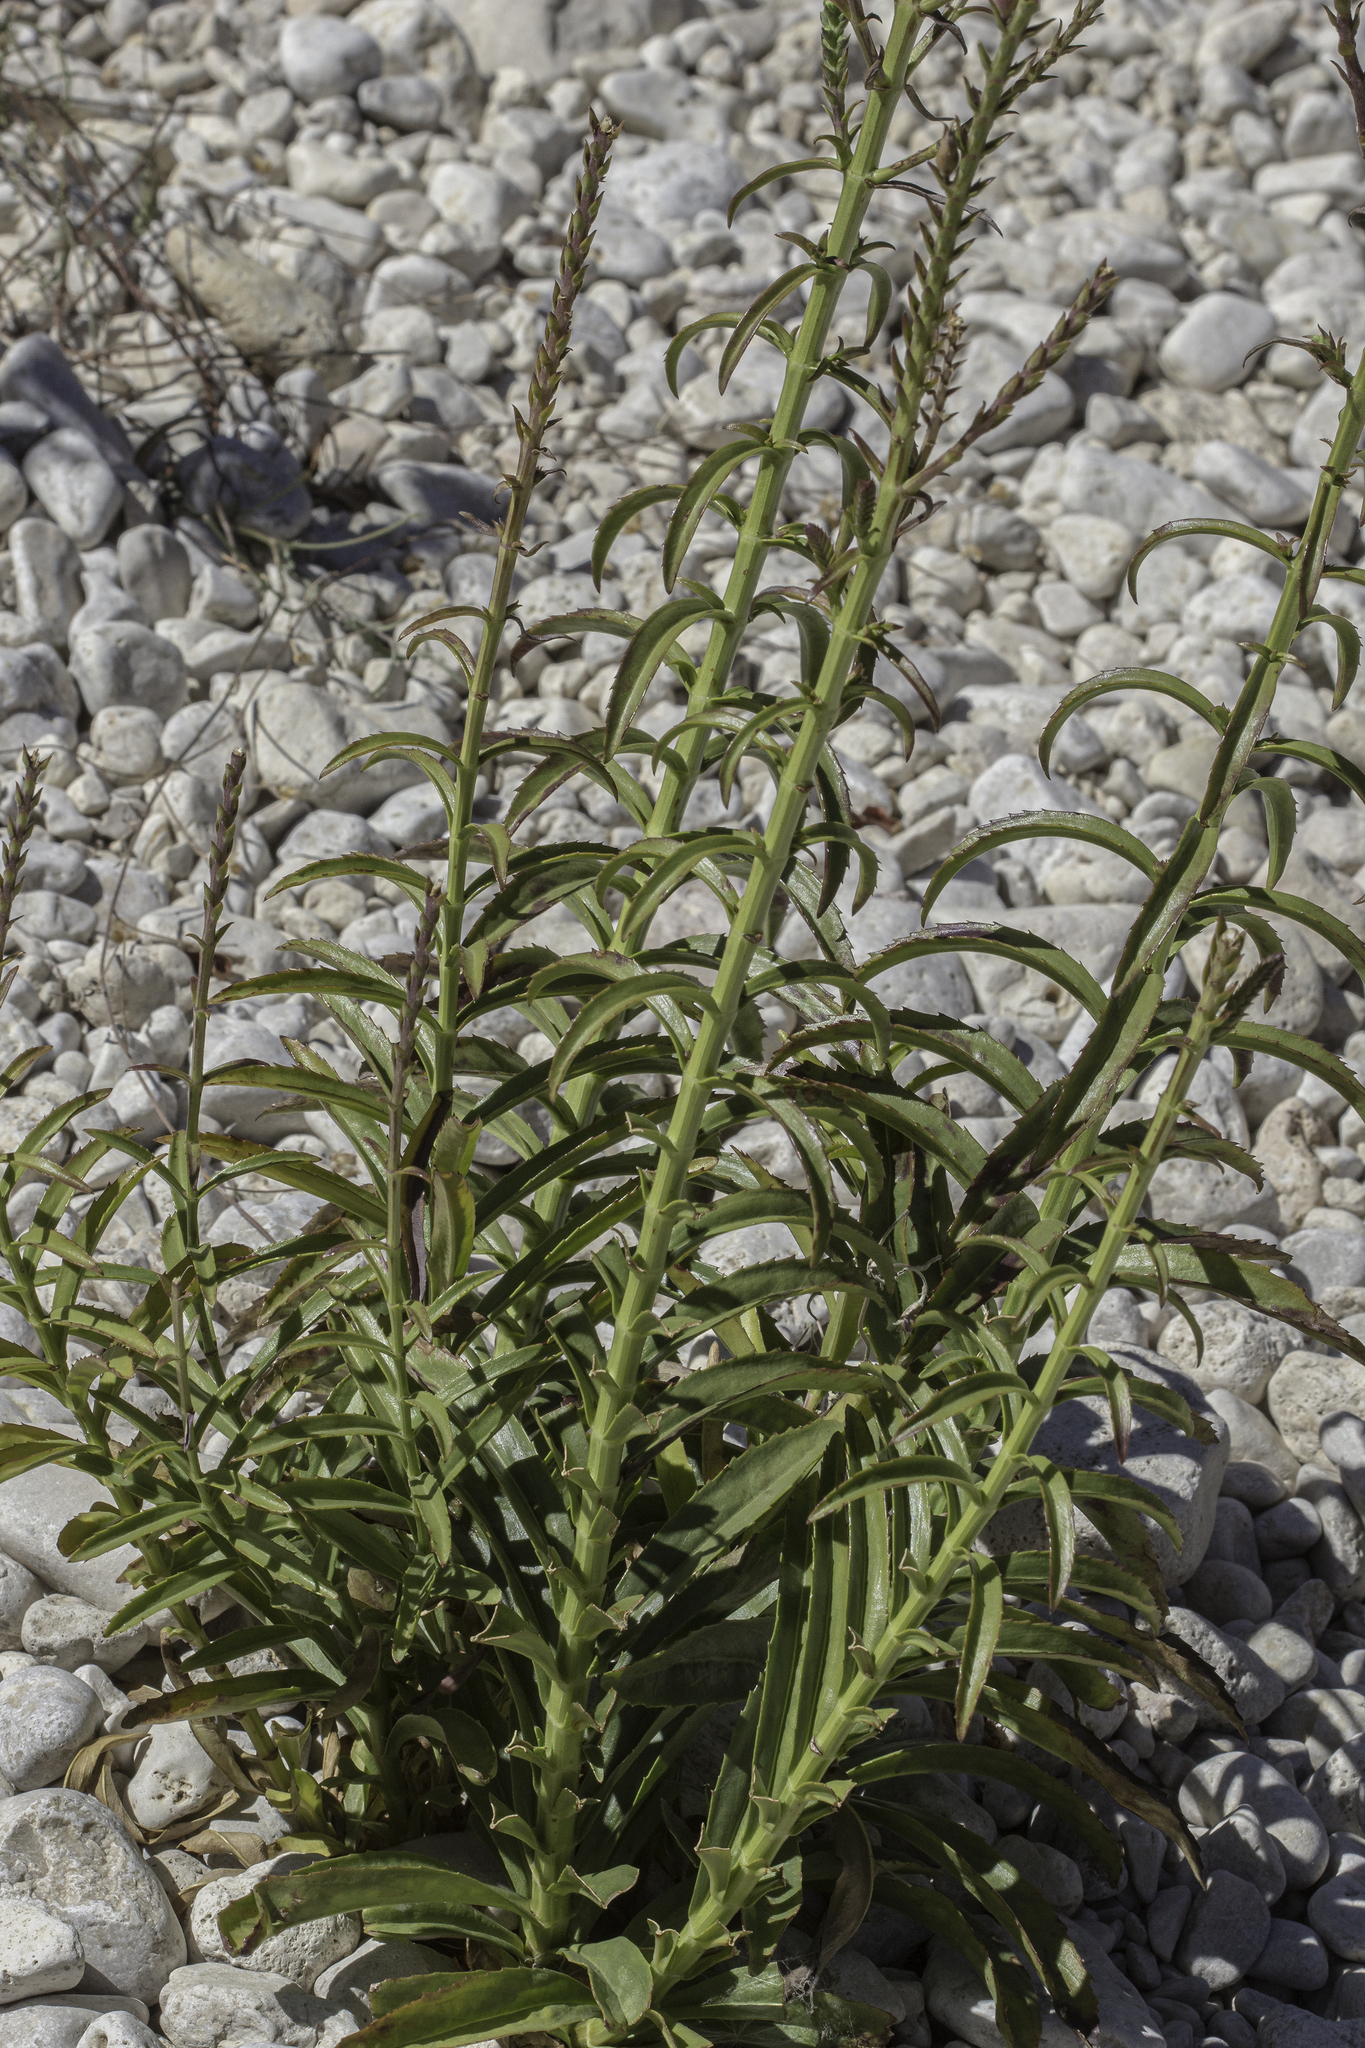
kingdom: Plantae
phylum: Tracheophyta
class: Magnoliopsida
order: Lamiales
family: Lamiaceae
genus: Physostegia
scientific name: Physostegia virginiana
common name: Obedient-plant
